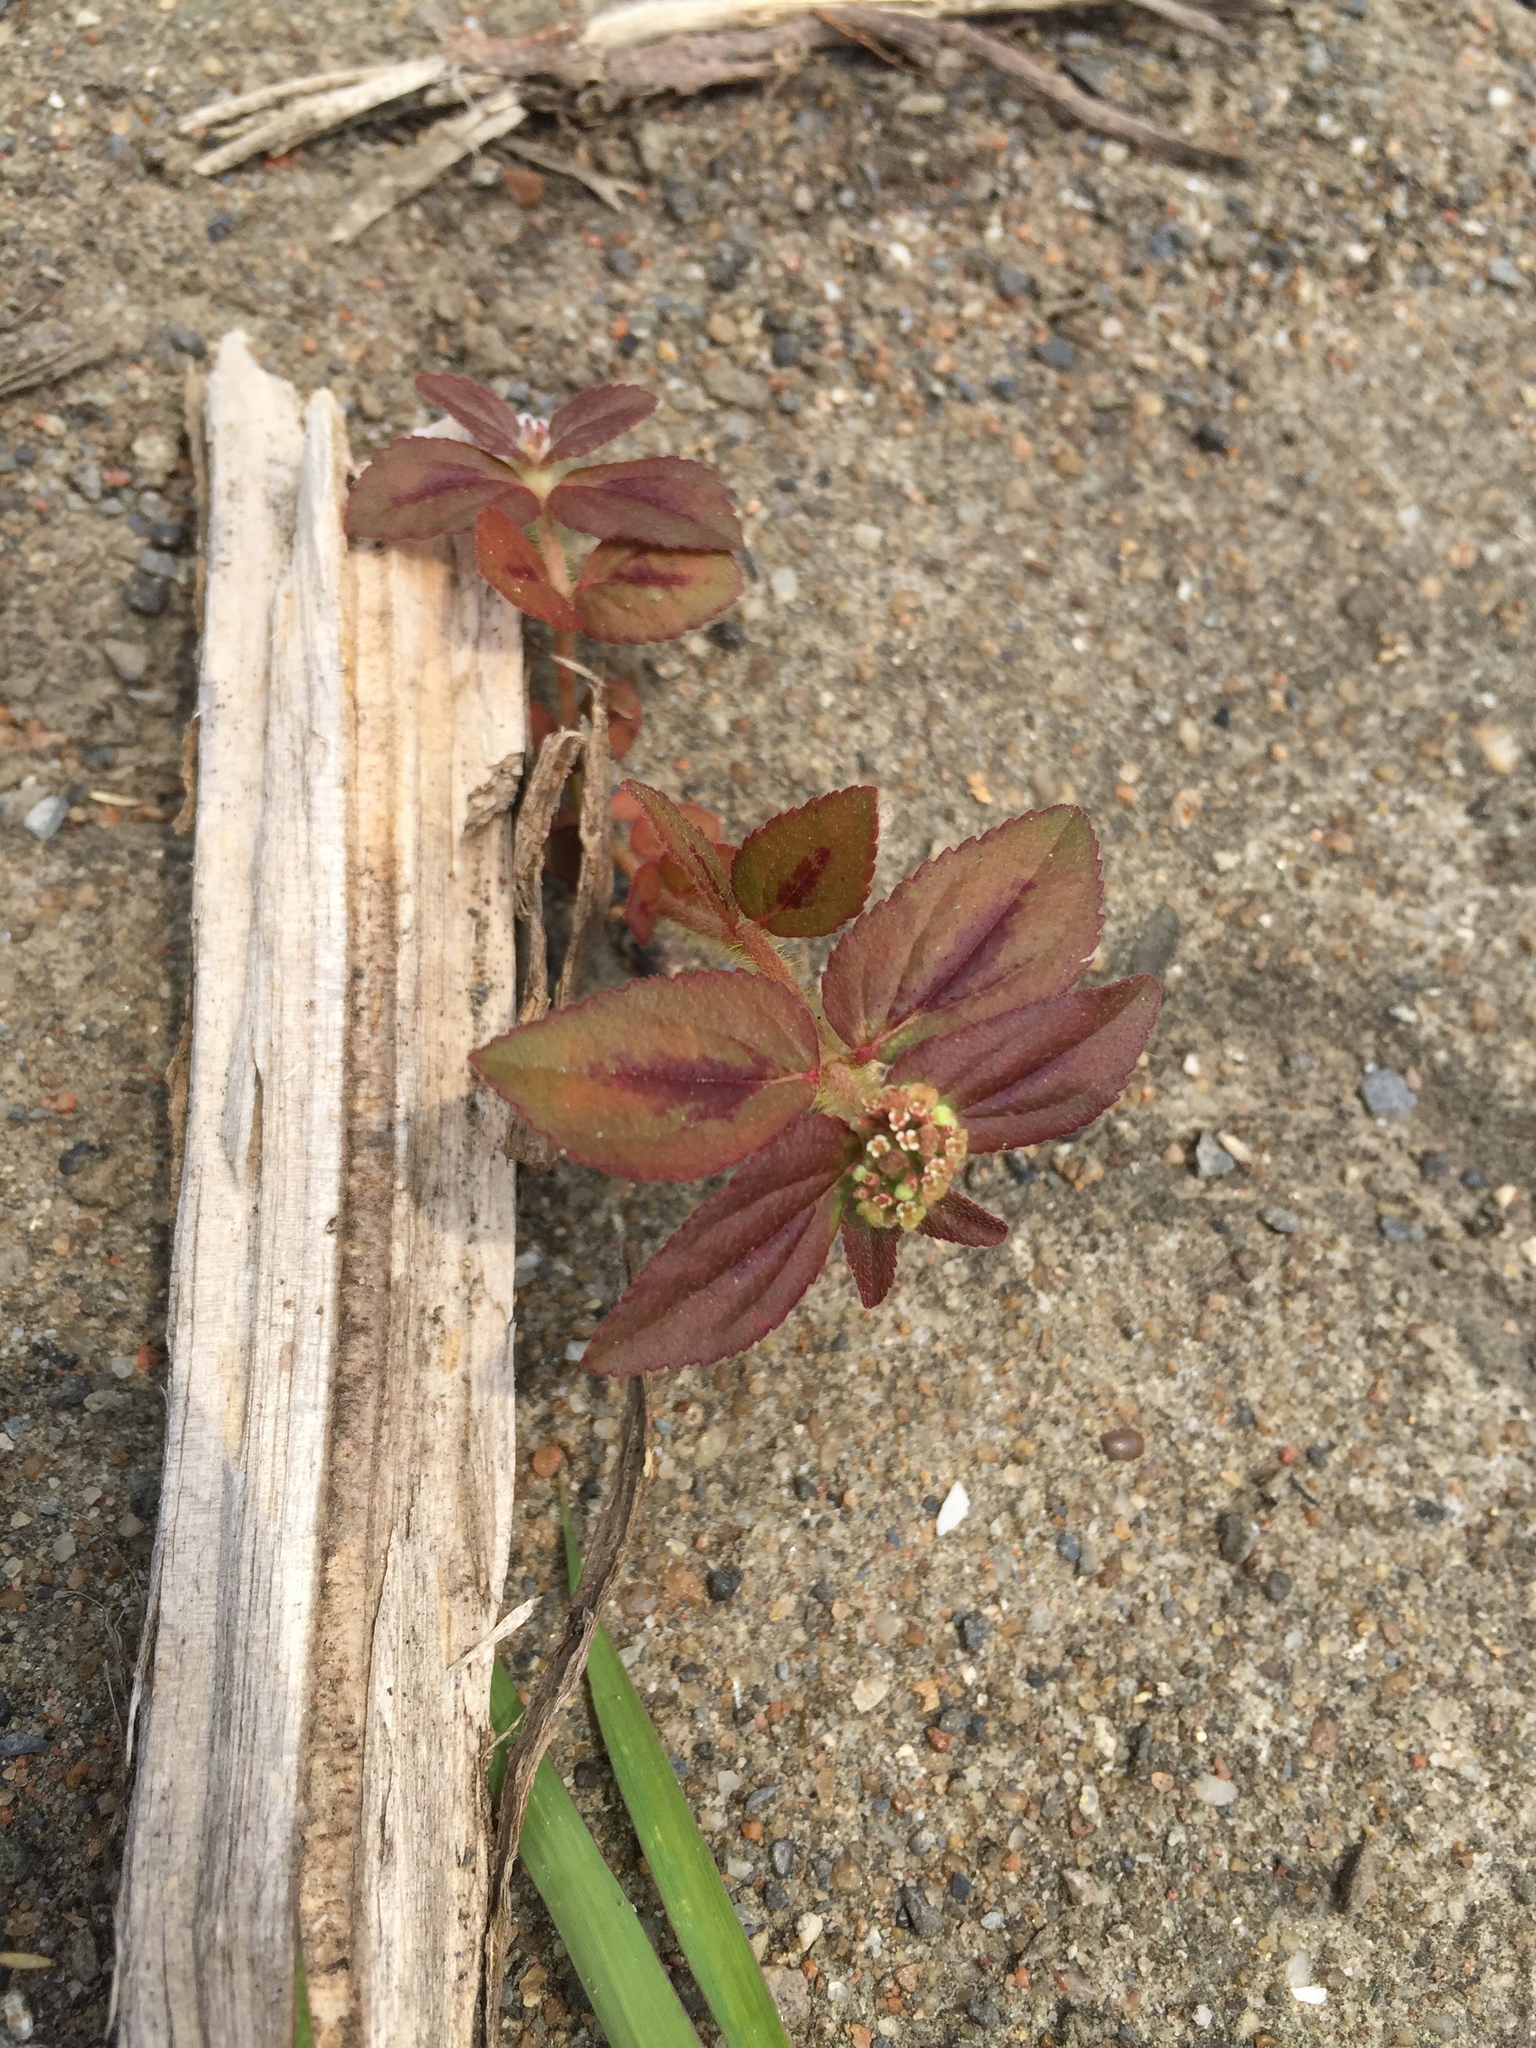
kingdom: Plantae
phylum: Tracheophyta
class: Magnoliopsida
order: Malpighiales
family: Euphorbiaceae
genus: Euphorbia
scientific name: Euphorbia hirta
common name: Pillpod sandmat
